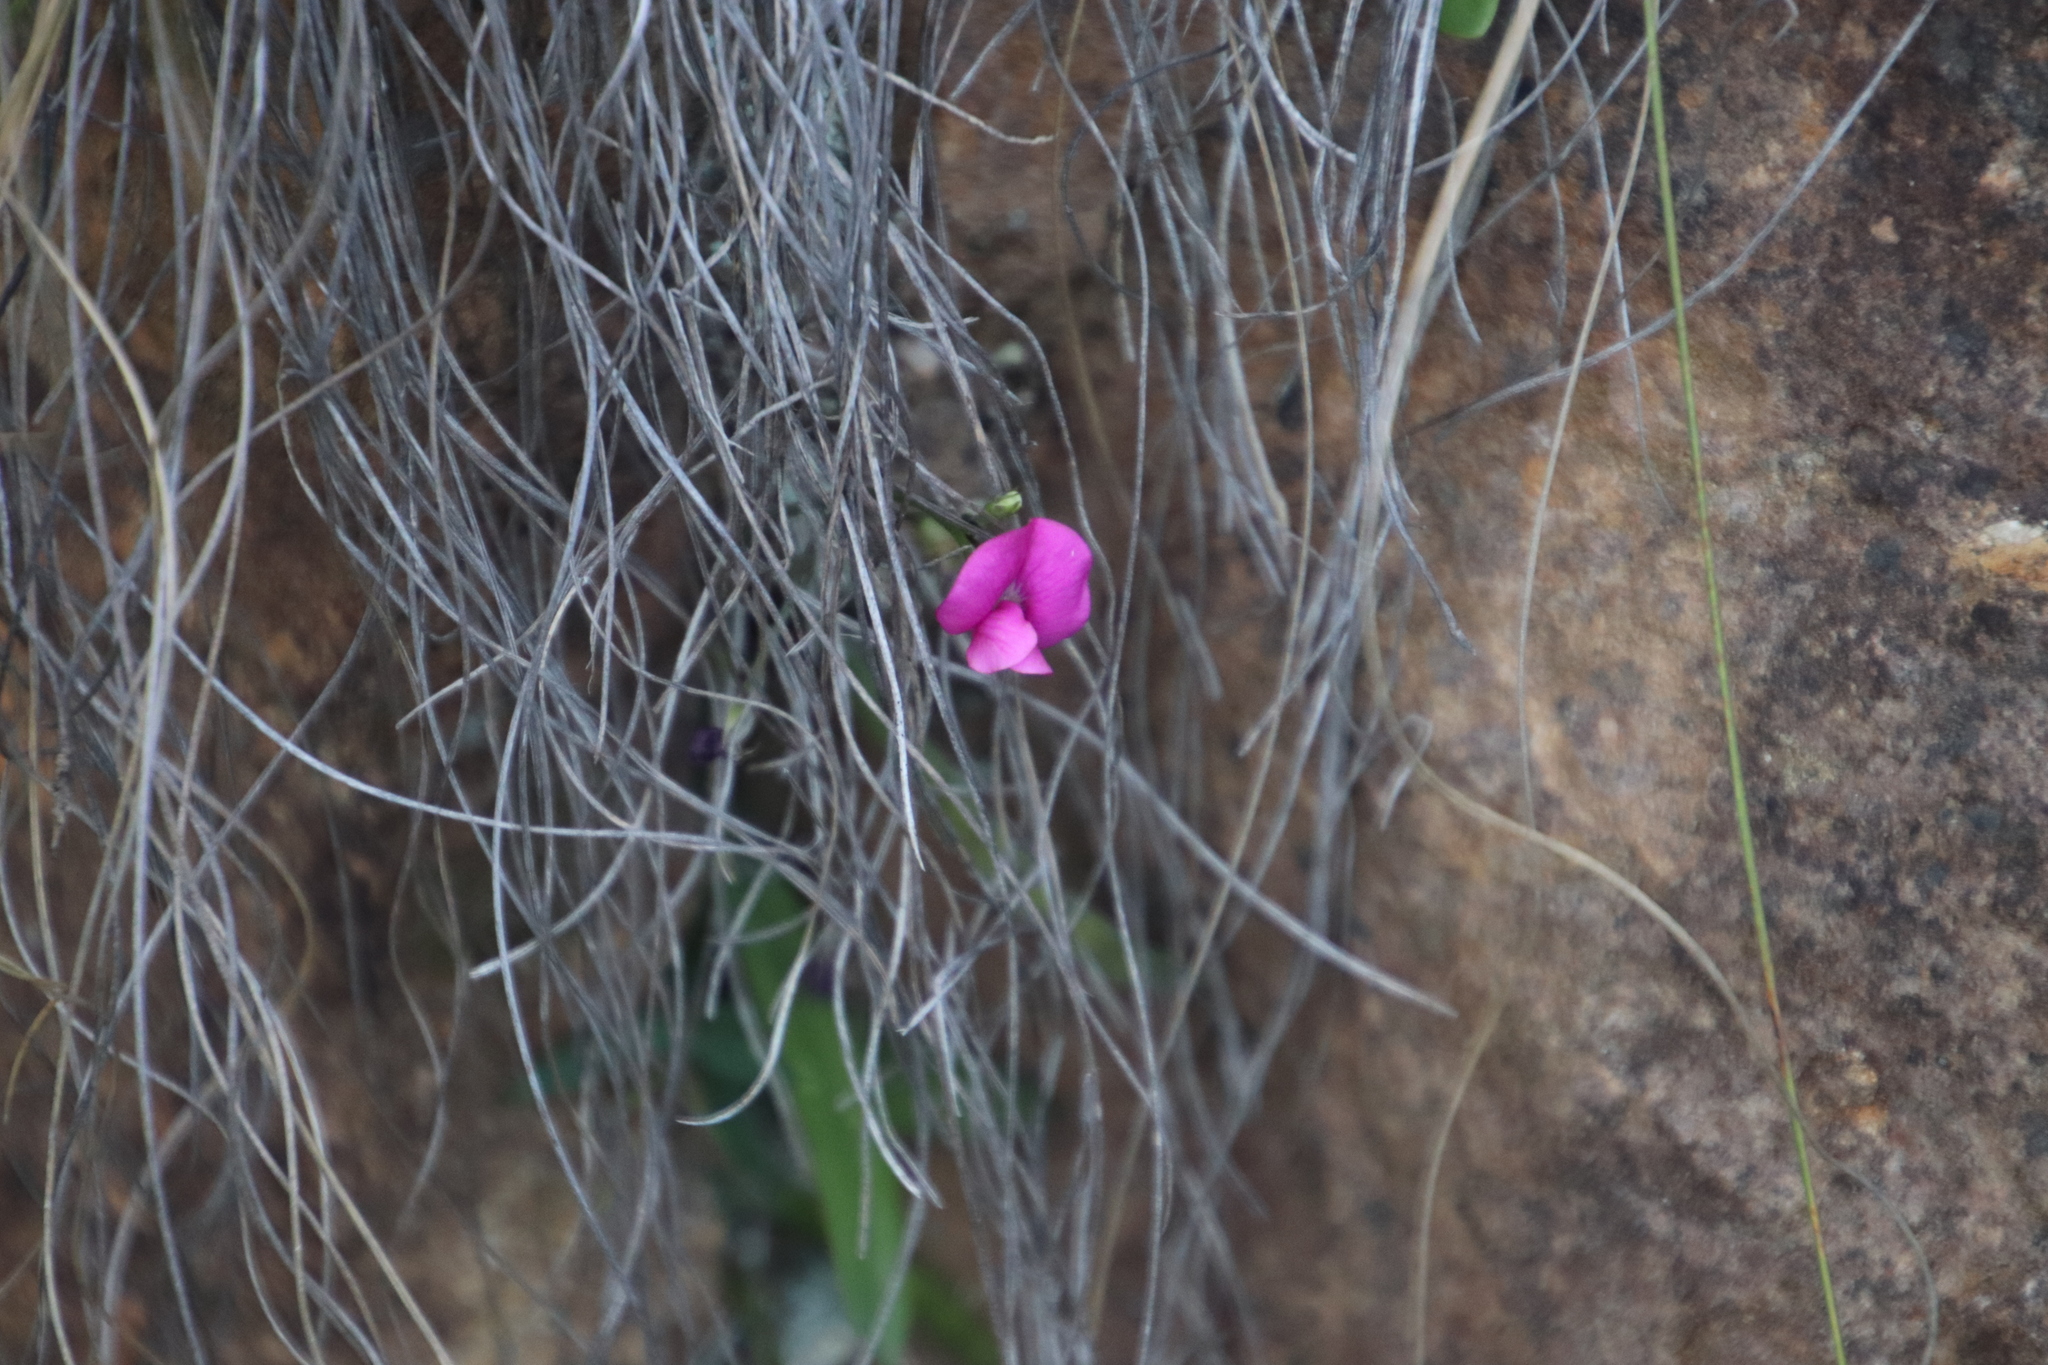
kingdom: Plantae
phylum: Tracheophyta
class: Magnoliopsida
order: Fabales
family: Fabaceae
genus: Tephrosia
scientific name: Tephrosia capensis
